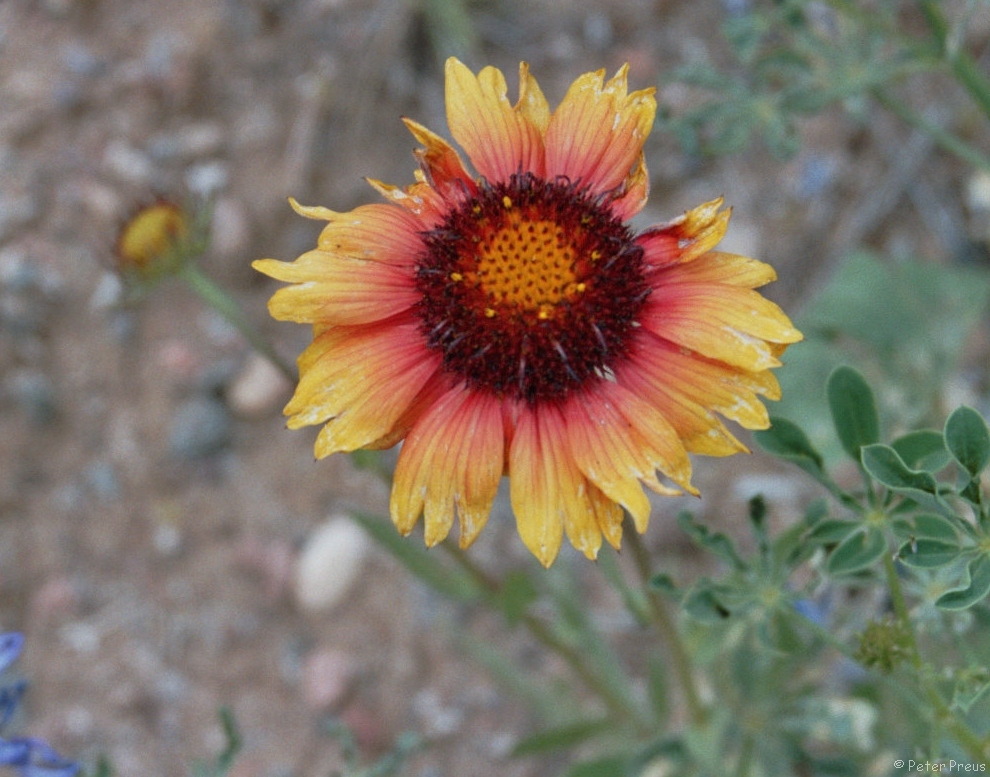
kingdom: Plantae
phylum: Tracheophyta
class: Magnoliopsida
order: Asterales
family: Asteraceae
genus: Gaillardia
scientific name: Gaillardia pulchella
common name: Firewheel
